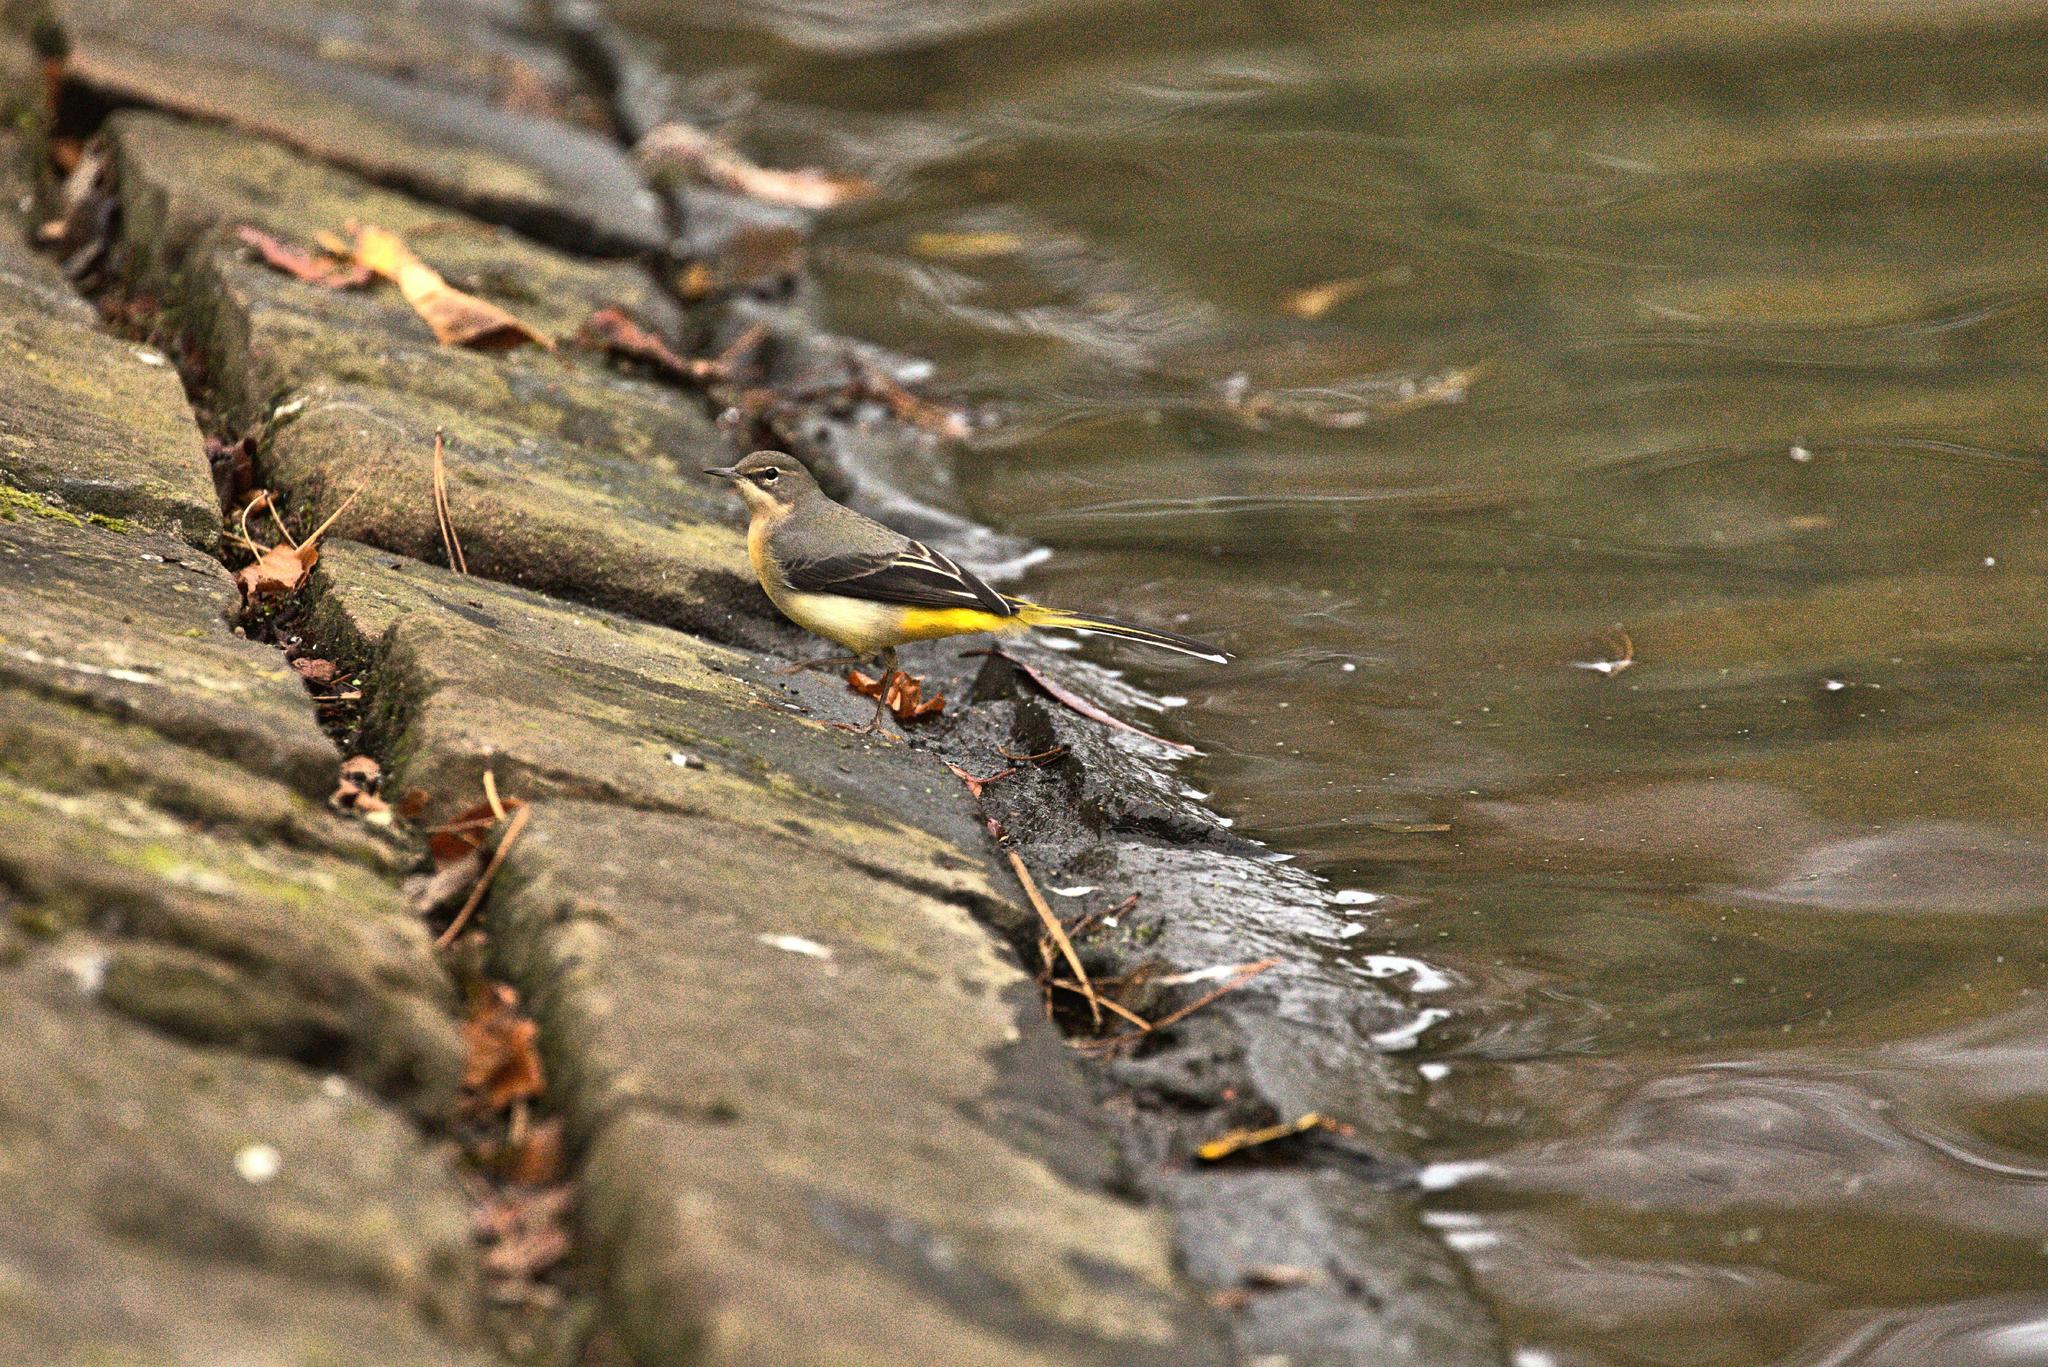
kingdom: Animalia
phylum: Chordata
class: Aves
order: Passeriformes
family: Motacillidae
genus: Motacilla
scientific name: Motacilla cinerea
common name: Grey wagtail
